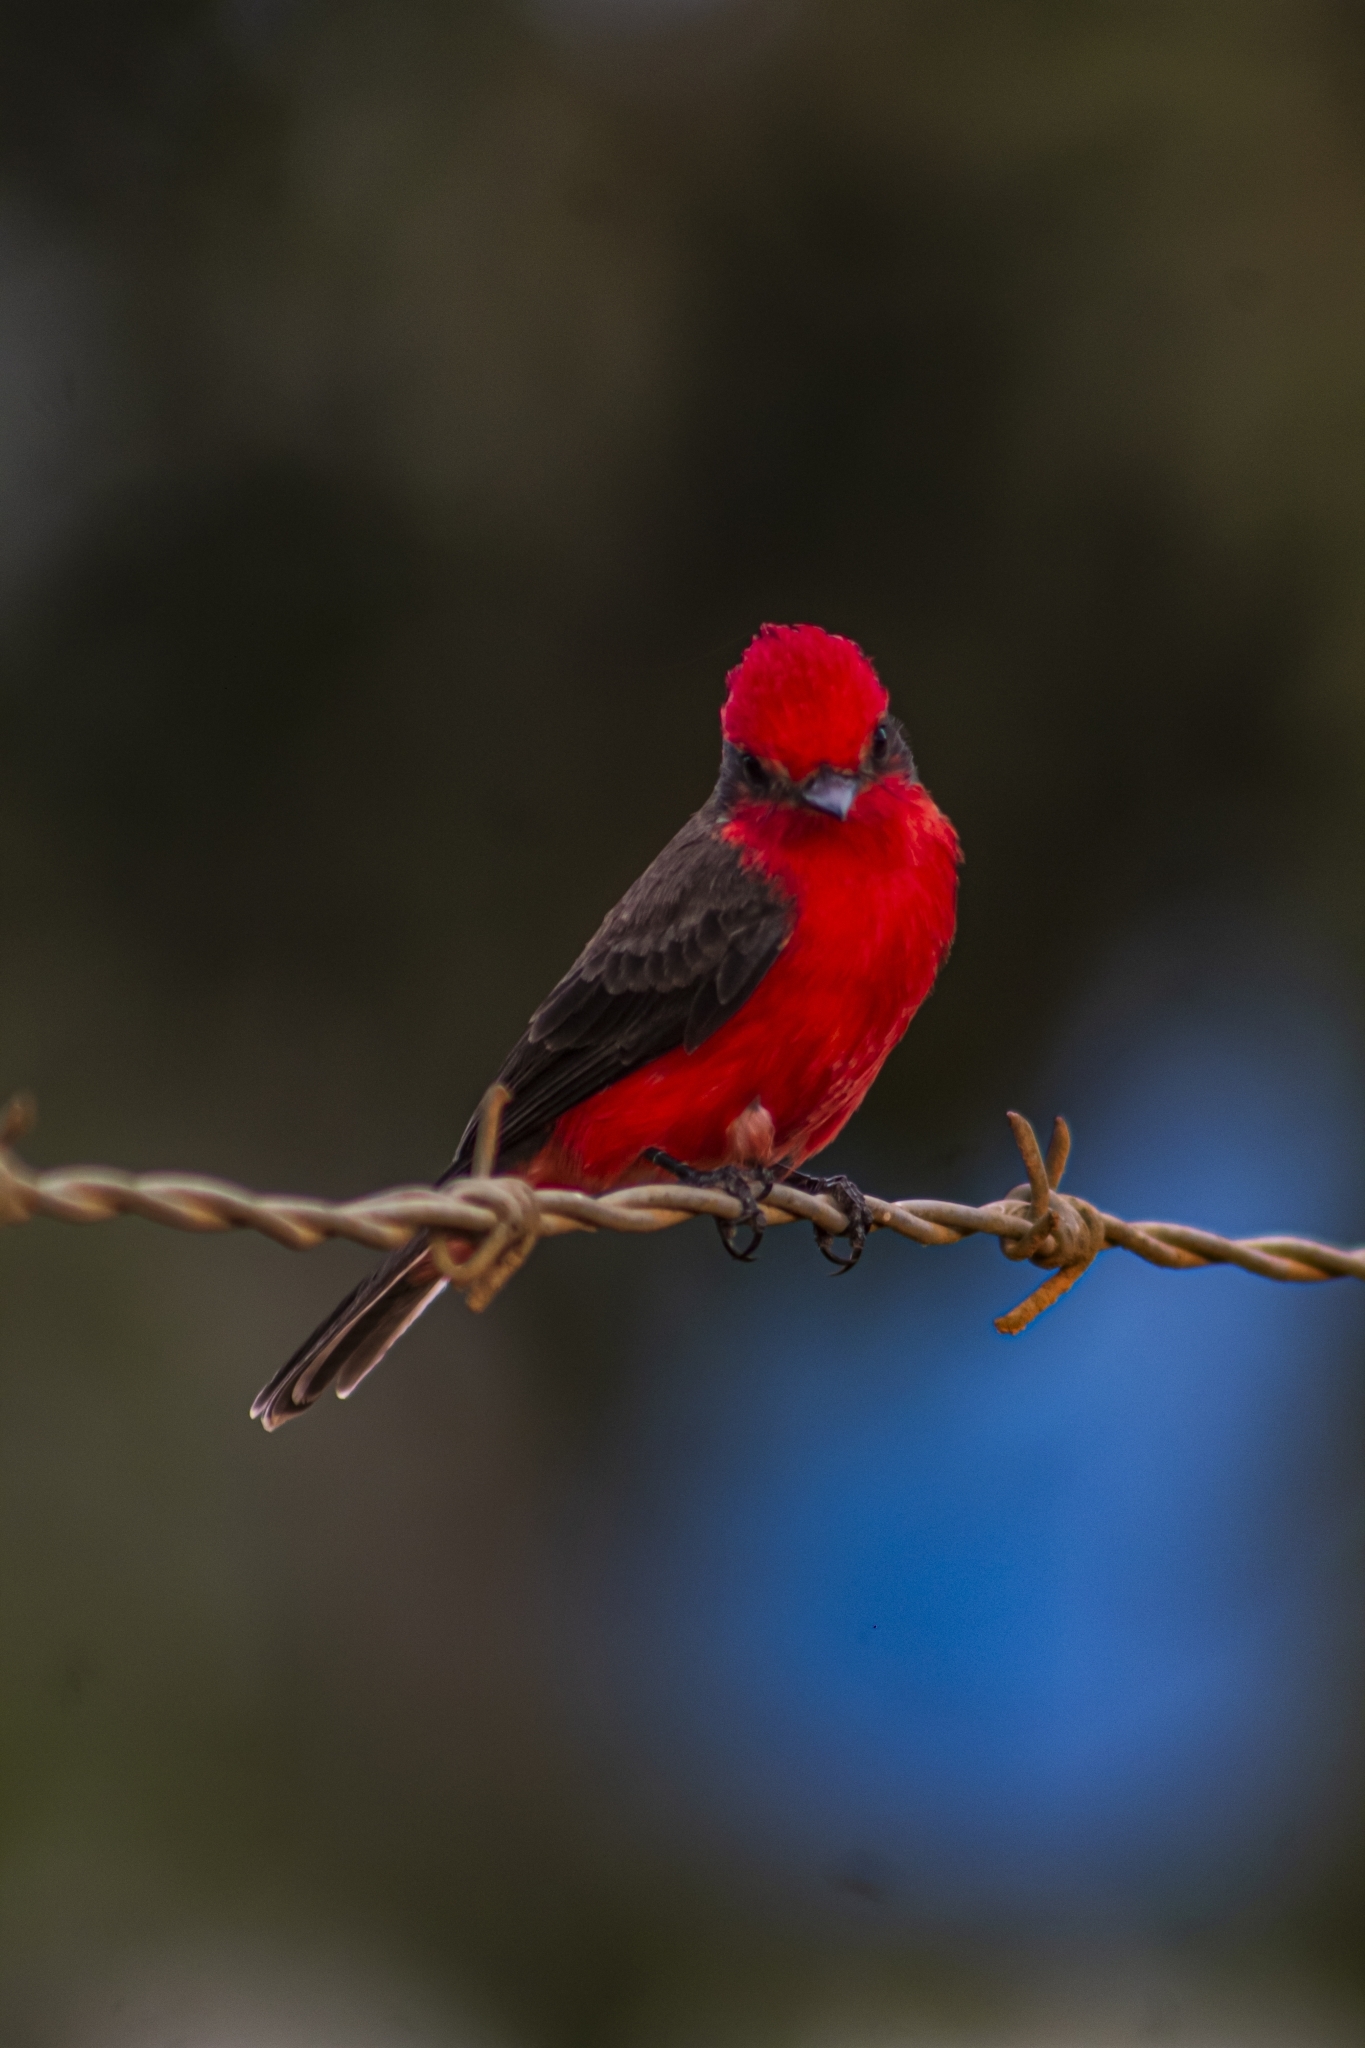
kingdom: Animalia
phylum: Chordata
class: Aves
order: Passeriformes
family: Tyrannidae
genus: Pyrocephalus
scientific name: Pyrocephalus rubinus
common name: Vermilion flycatcher
